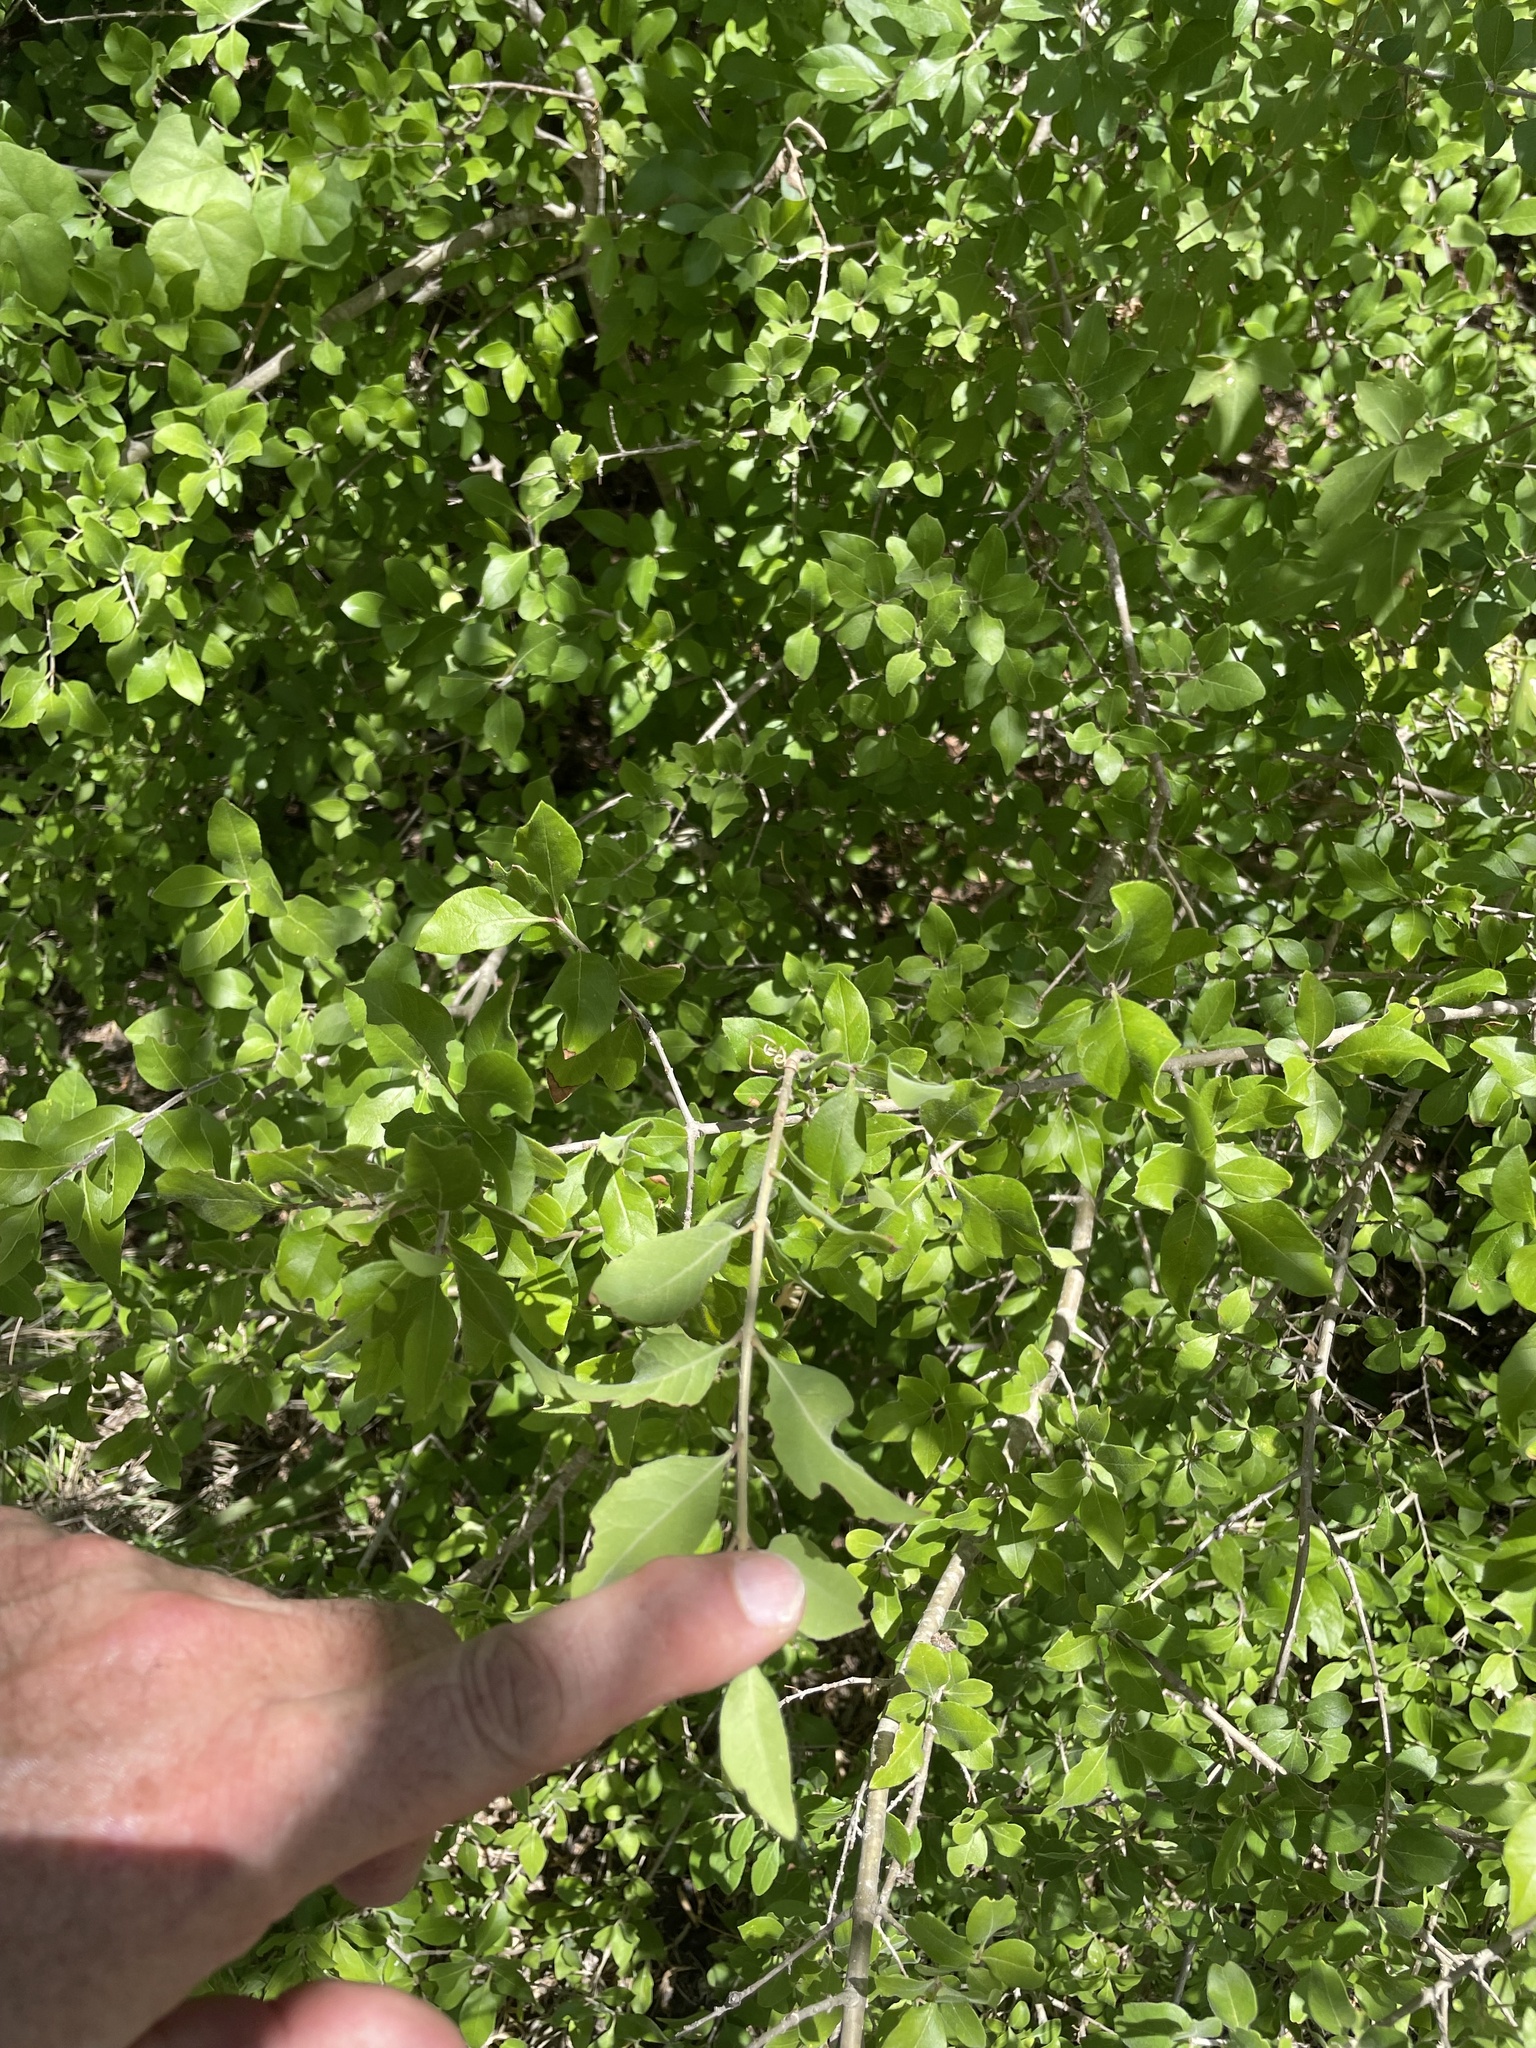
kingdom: Plantae
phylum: Tracheophyta
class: Magnoliopsida
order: Lamiales
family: Oleaceae
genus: Forestiera
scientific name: Forestiera pubescens
